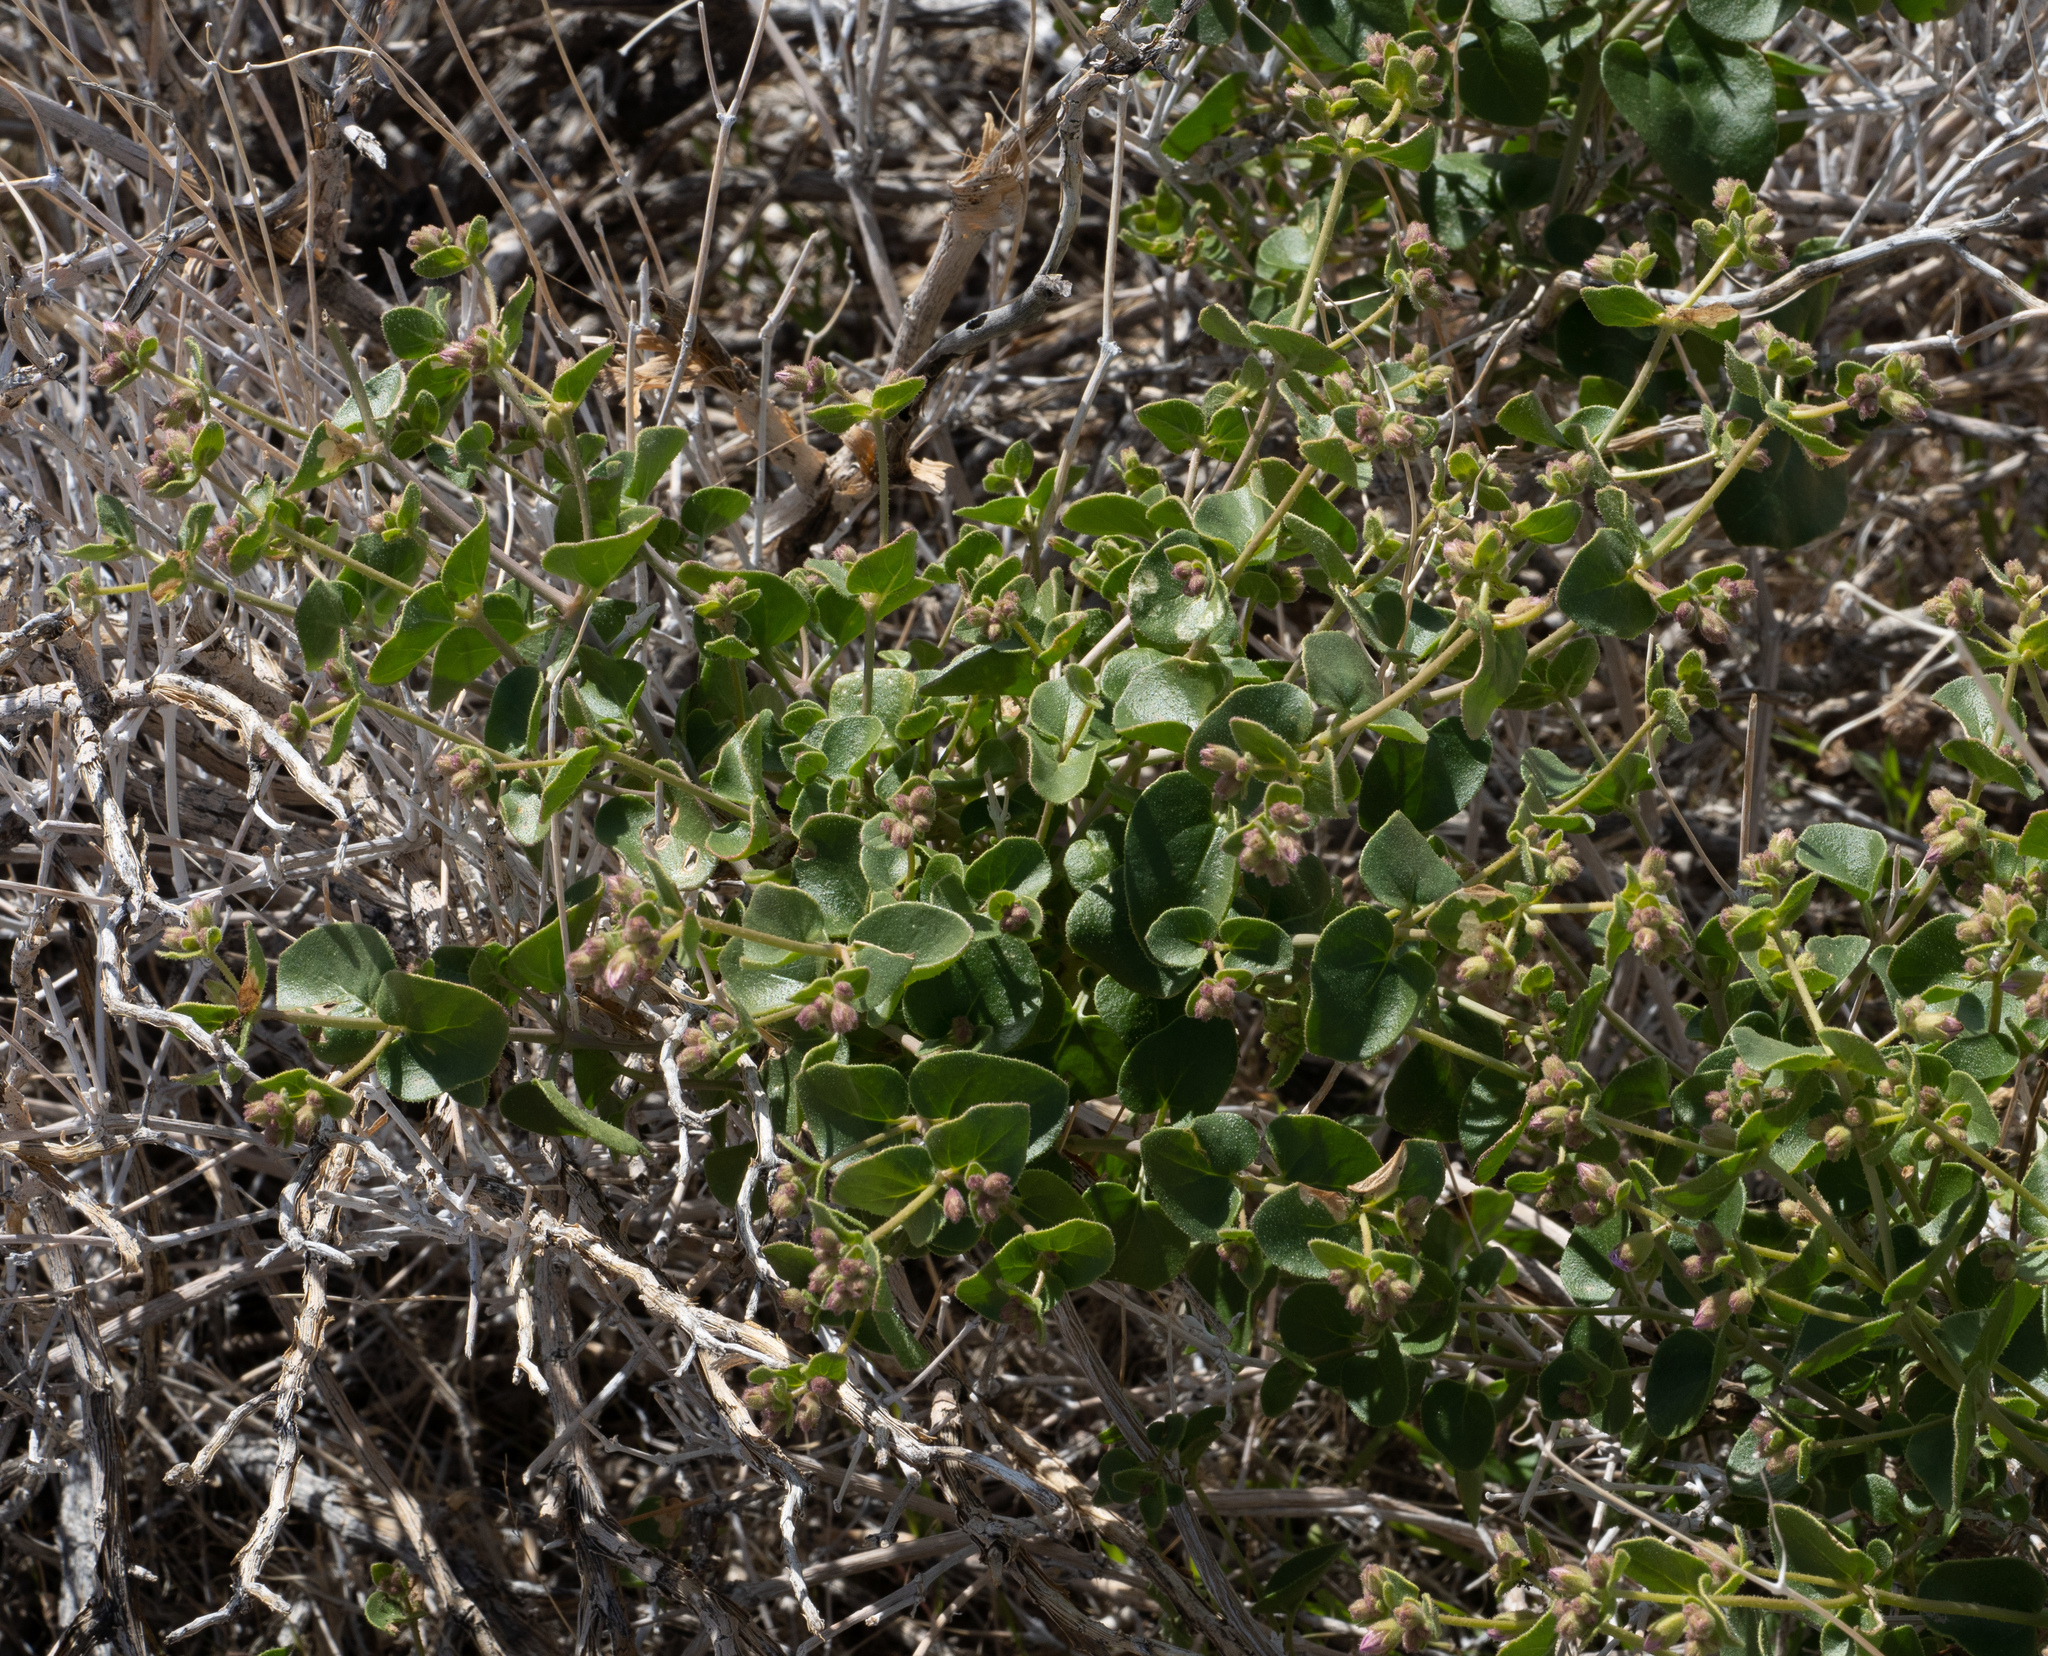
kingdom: Plantae
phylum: Tracheophyta
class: Magnoliopsida
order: Caryophyllales
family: Nyctaginaceae
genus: Mirabilis
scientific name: Mirabilis laevis
